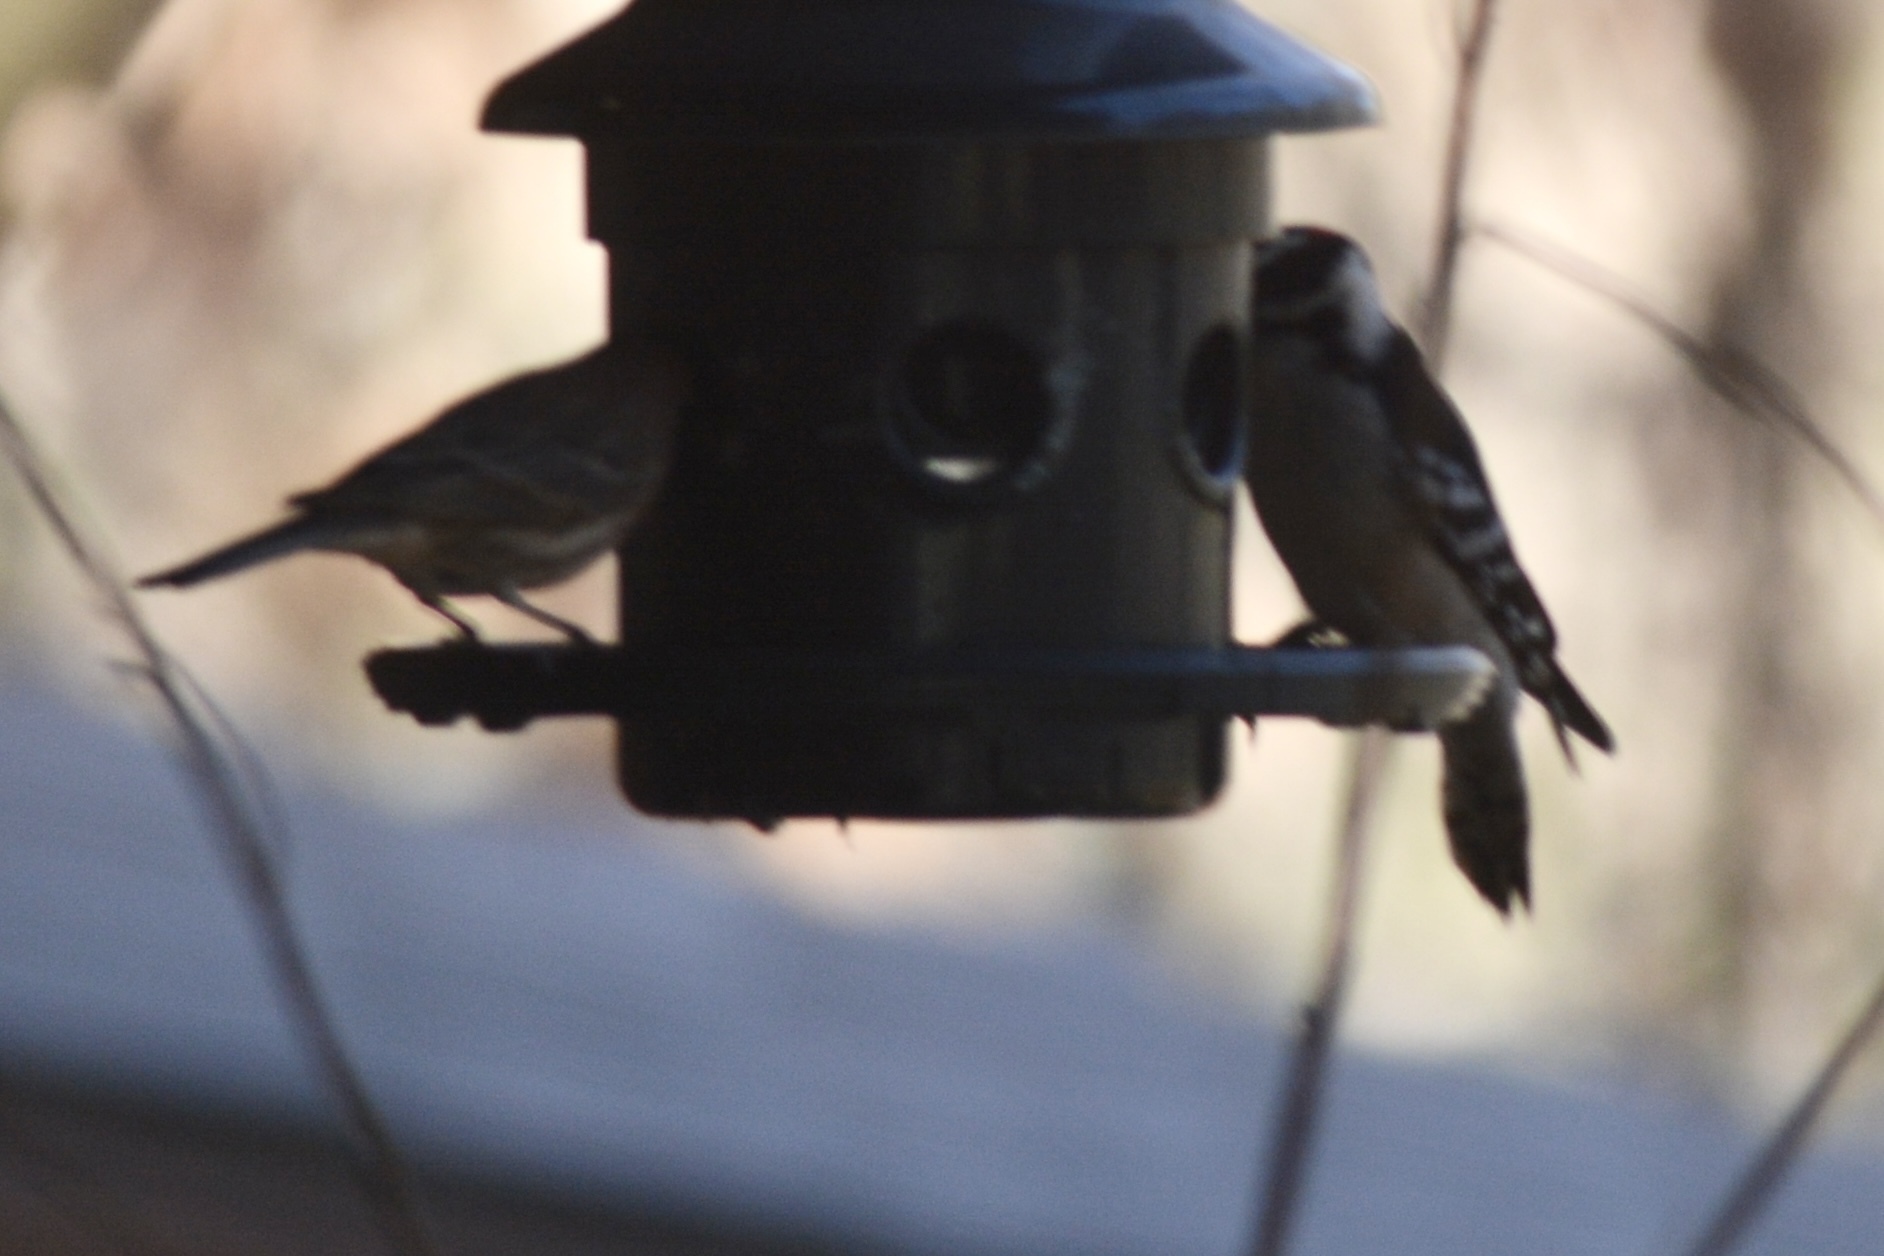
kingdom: Animalia
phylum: Chordata
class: Aves
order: Piciformes
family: Picidae
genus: Dryobates
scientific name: Dryobates pubescens
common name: Downy woodpecker
